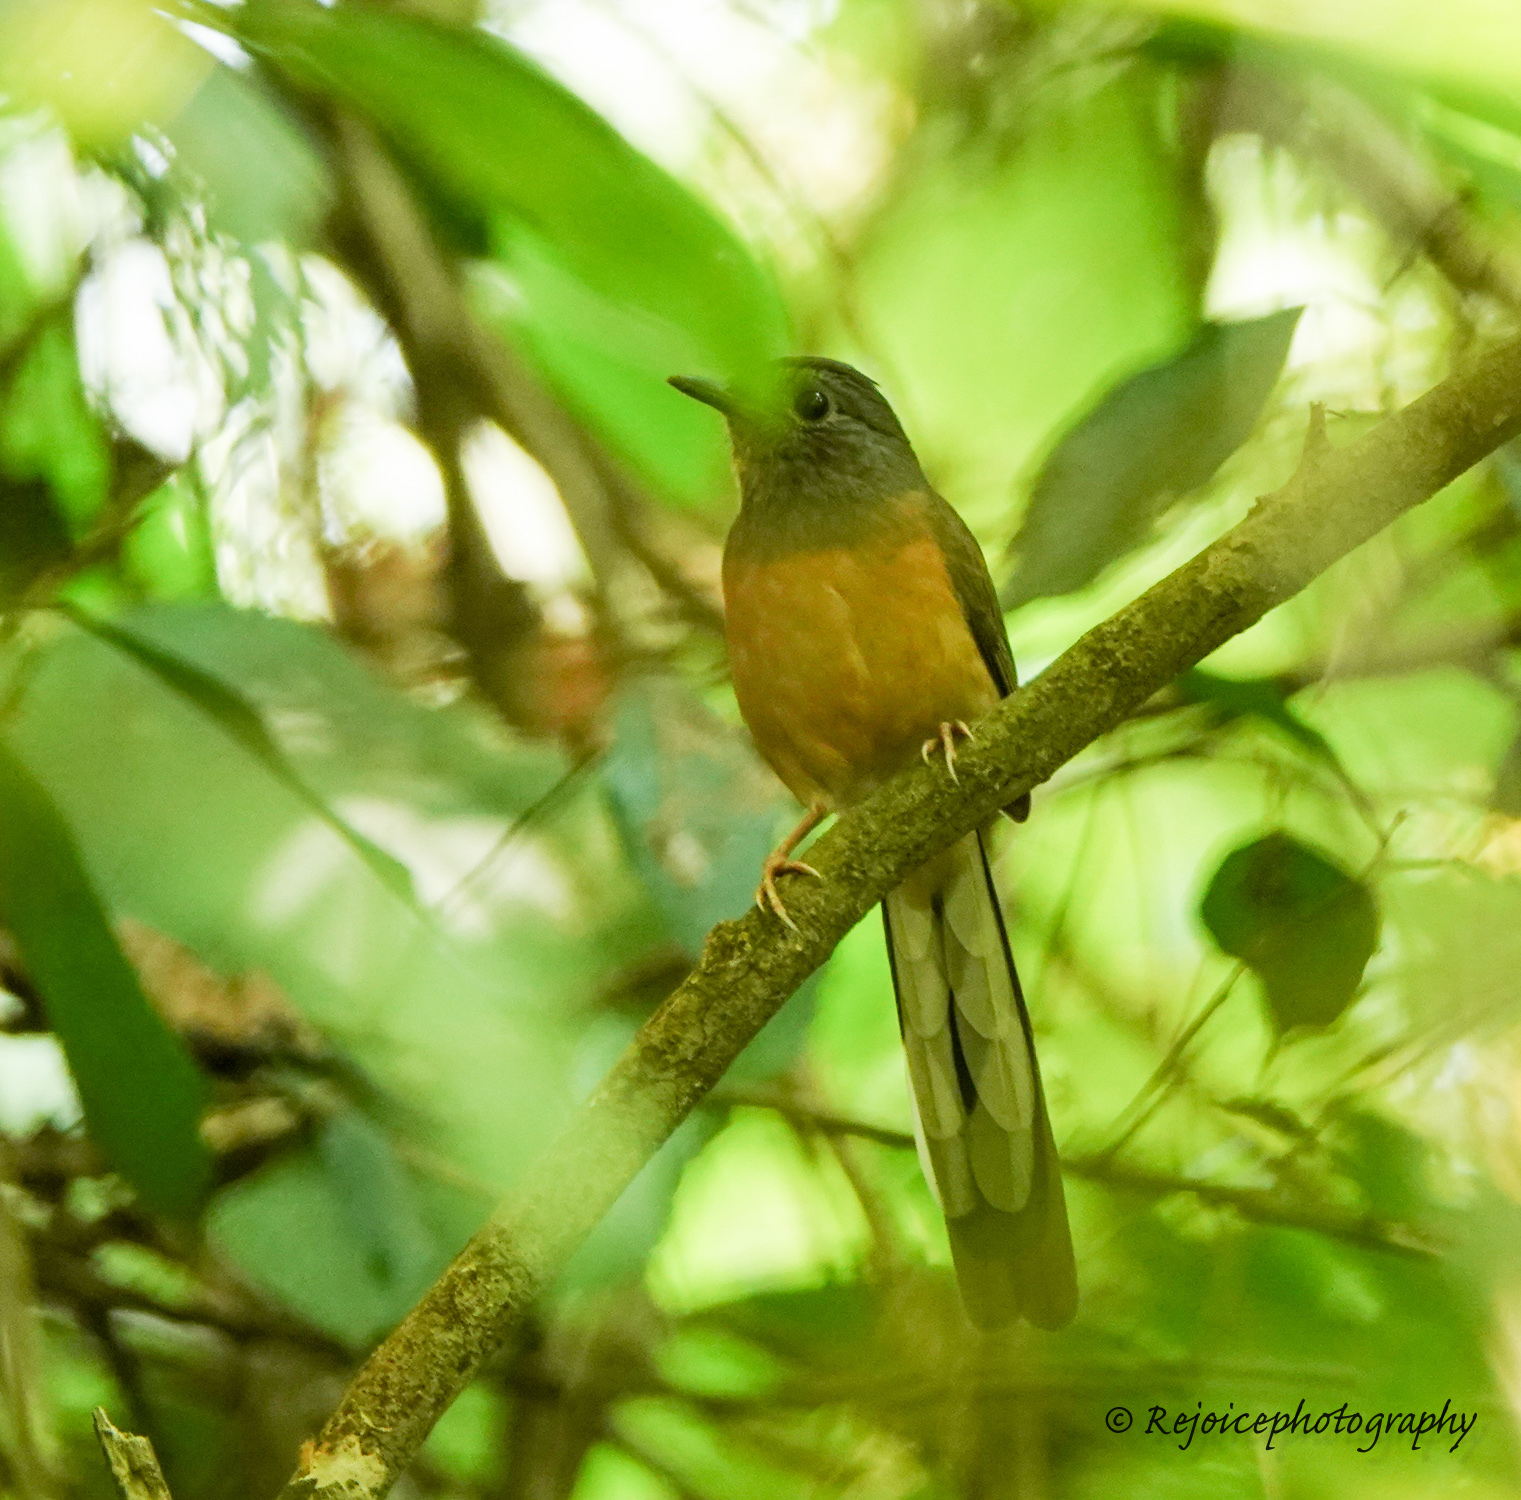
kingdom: Animalia
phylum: Chordata
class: Aves
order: Passeriformes
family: Muscicapidae
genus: Copsychus
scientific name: Copsychus malabaricus
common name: White-rumped shama
